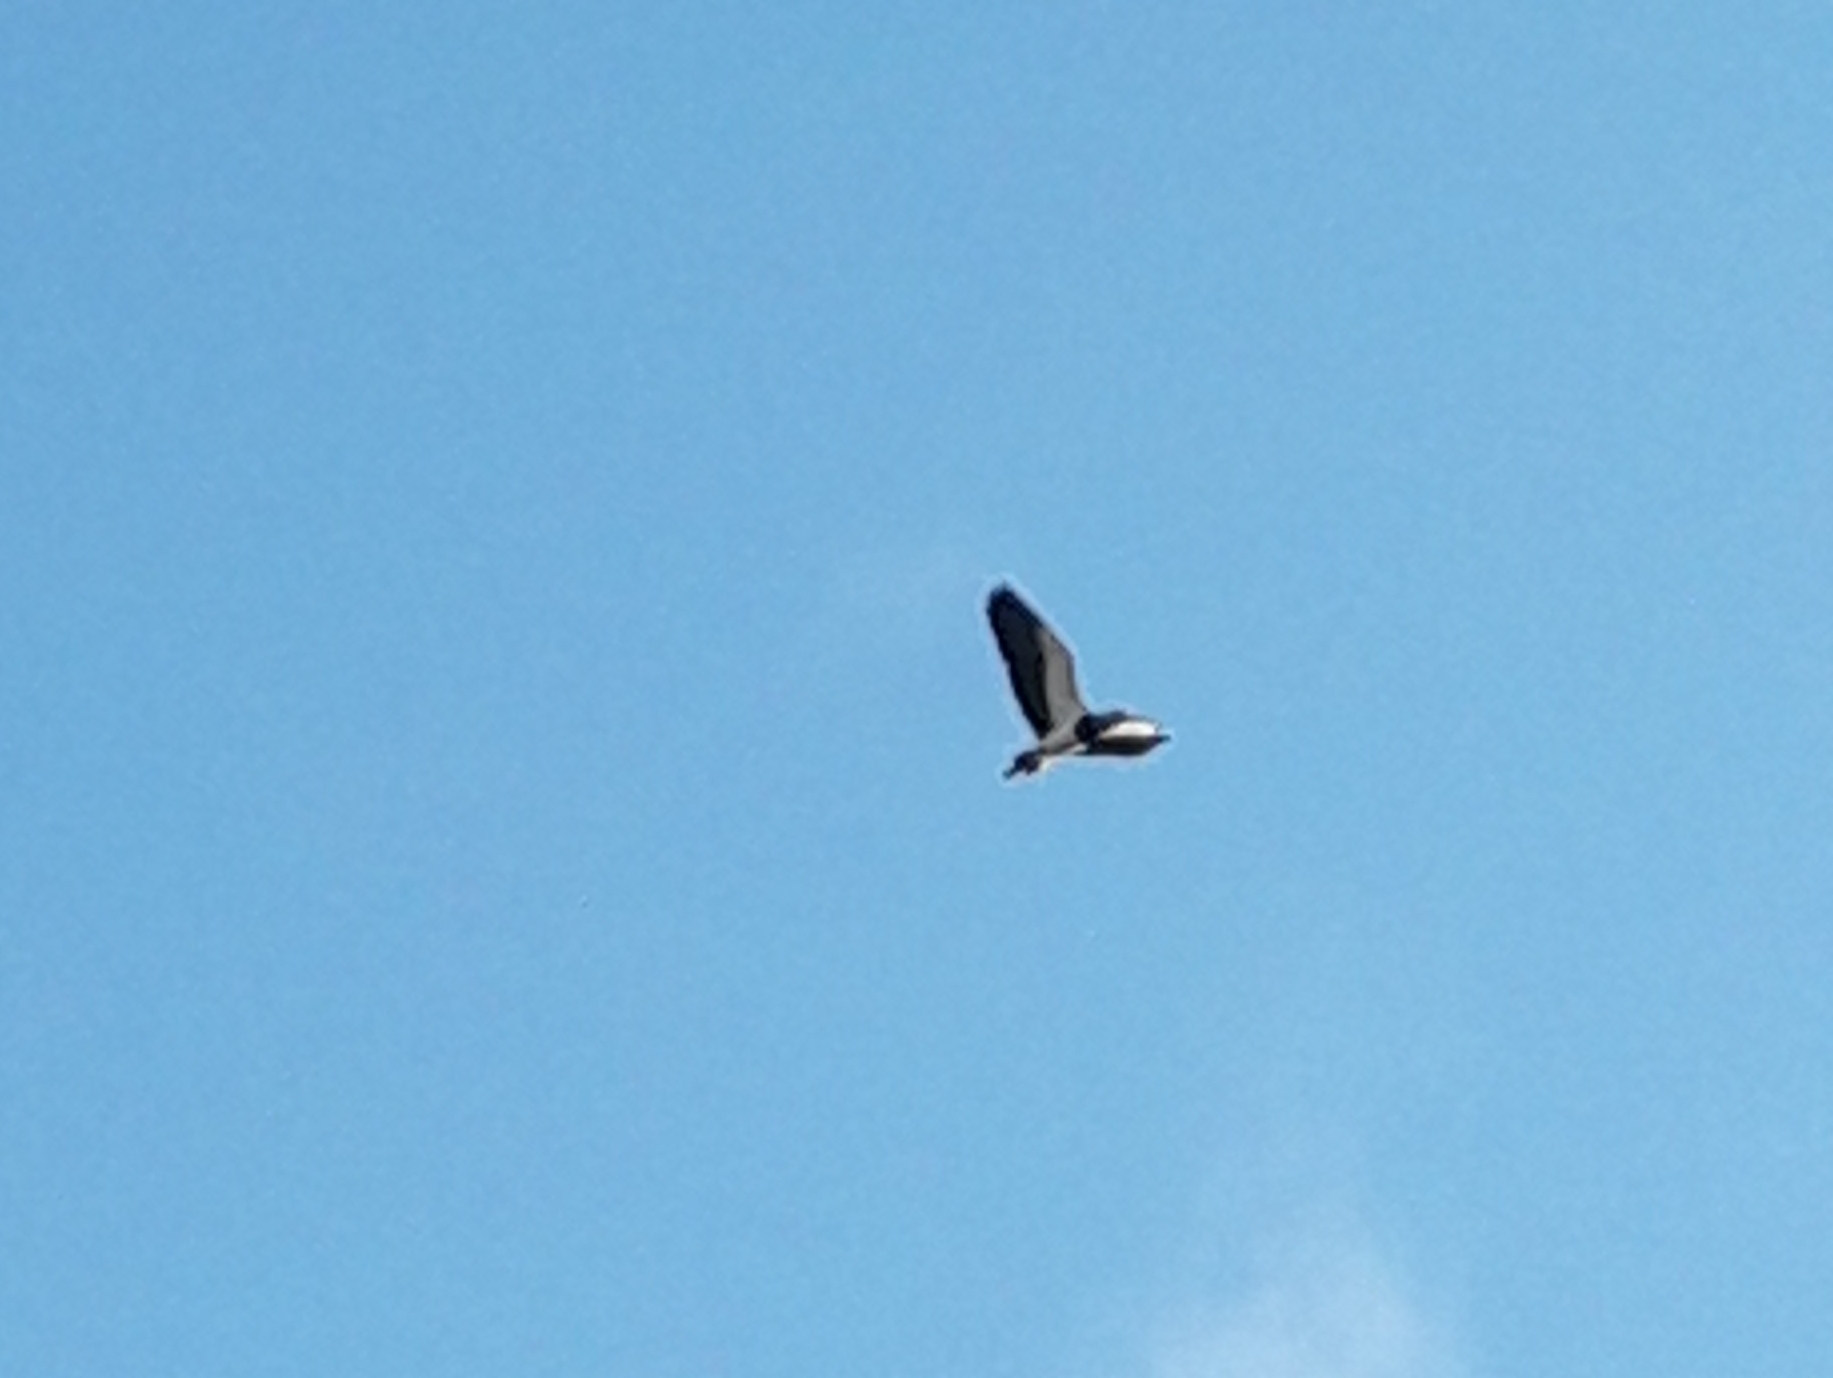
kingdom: Animalia
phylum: Chordata
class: Aves
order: Charadriiformes
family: Charadriidae
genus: Vanellus
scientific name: Vanellus chilensis
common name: Southern lapwing
